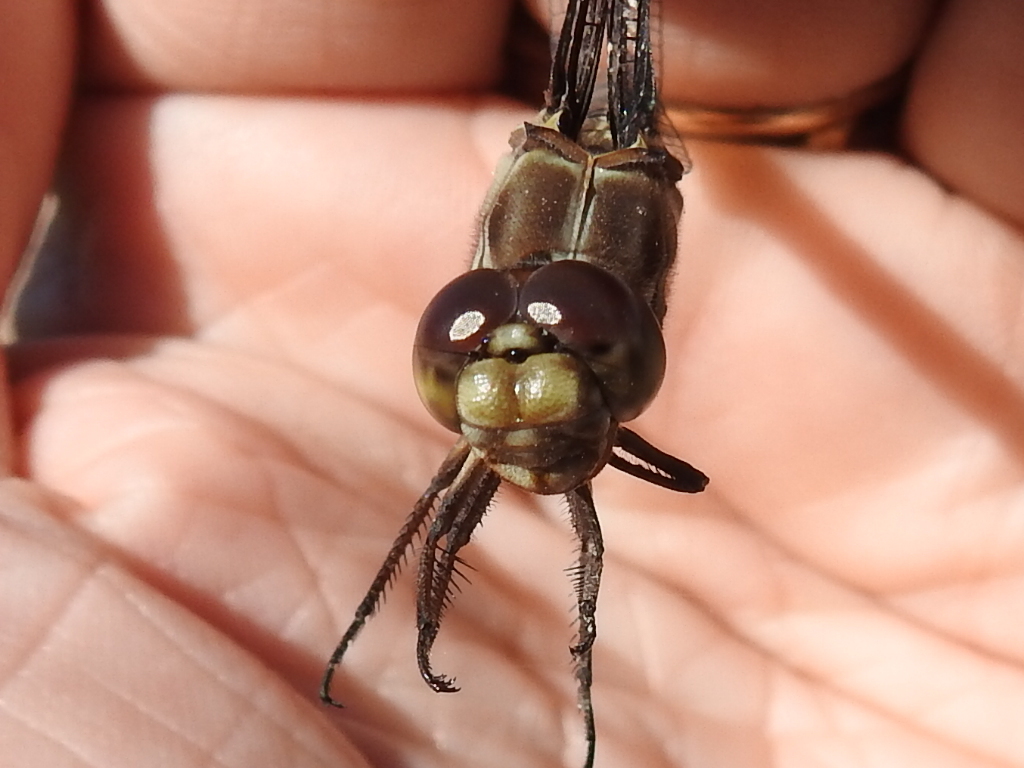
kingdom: Animalia
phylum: Arthropoda
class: Insecta
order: Odonata
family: Libellulidae
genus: Orthemis
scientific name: Orthemis ferruginea
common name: Roseate skimmer
